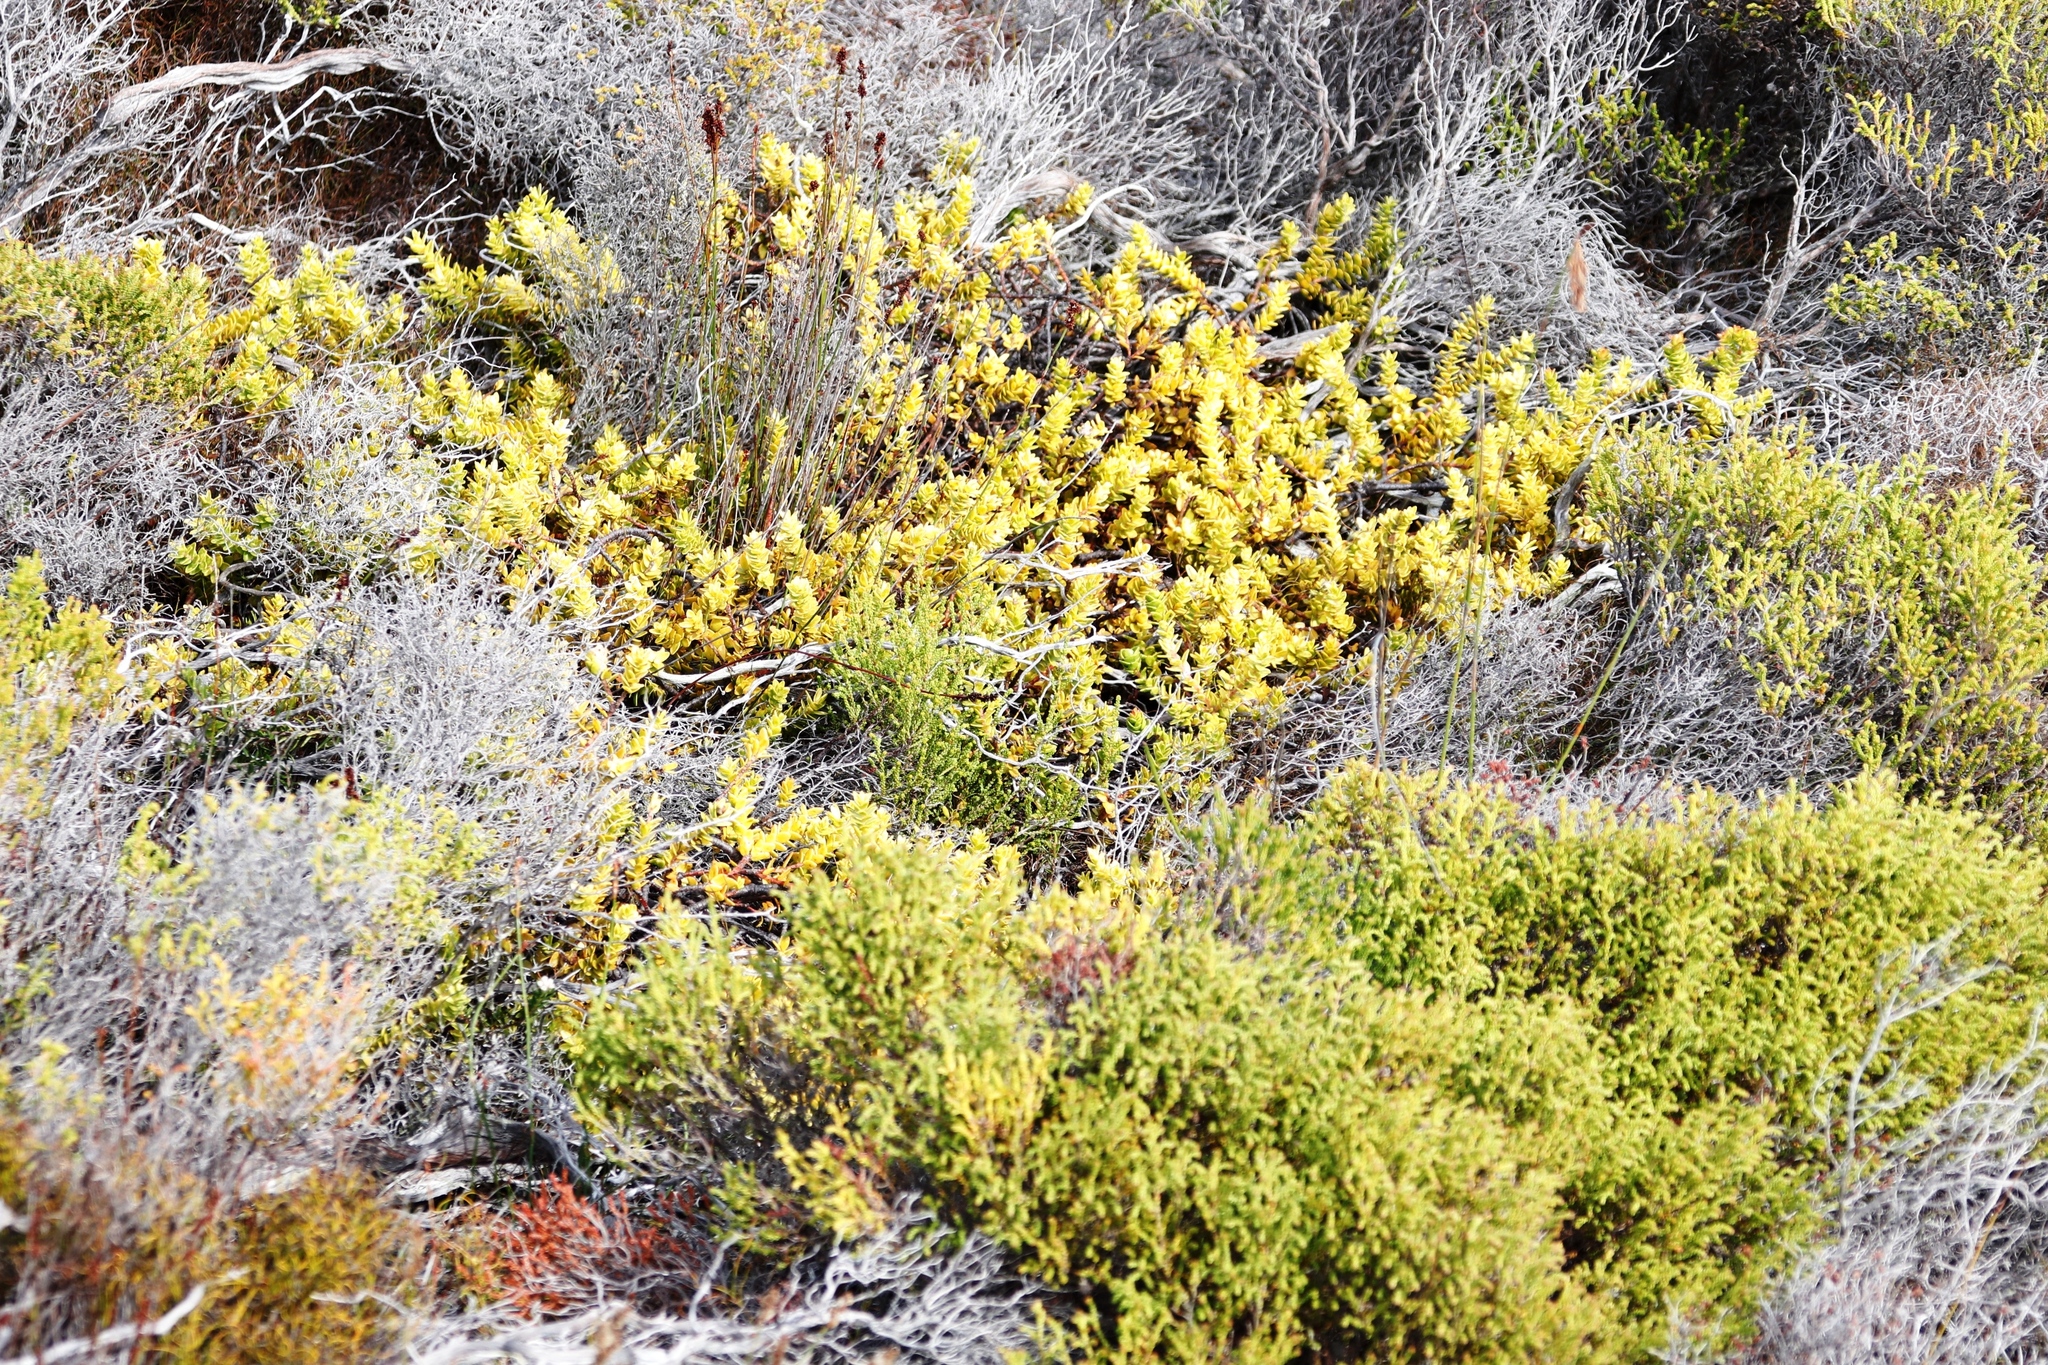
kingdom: Plantae
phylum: Tracheophyta
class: Magnoliopsida
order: Lamiales
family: Scrophulariaceae
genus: Oftia
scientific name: Oftia africana
